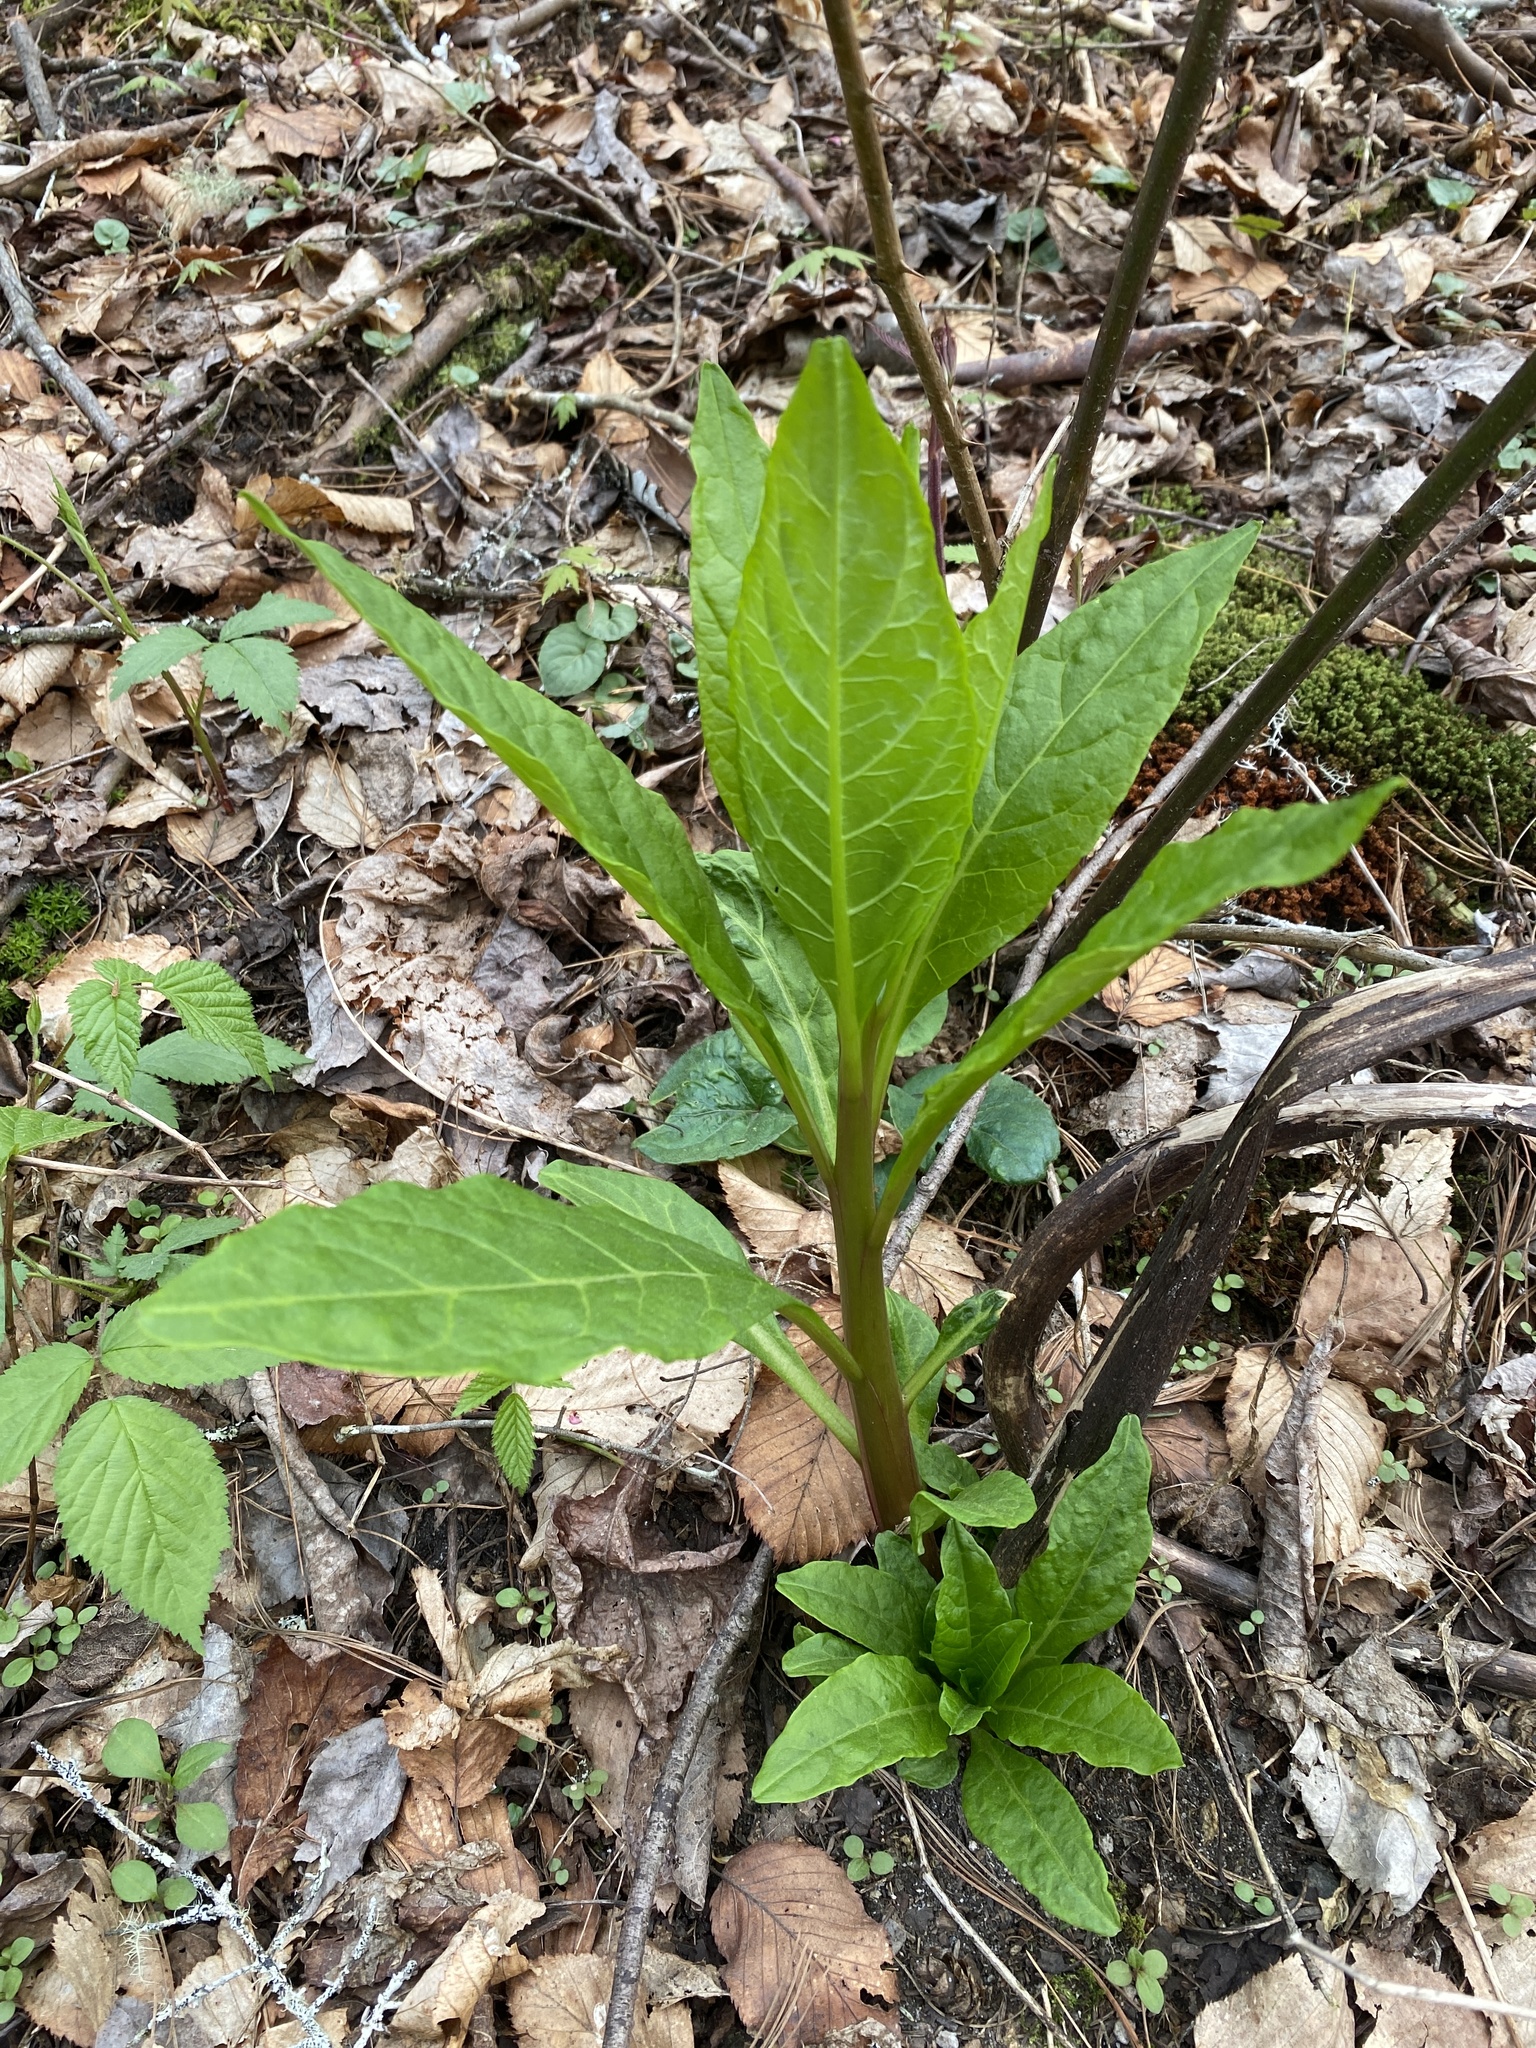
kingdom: Plantae
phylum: Tracheophyta
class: Magnoliopsida
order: Caryophyllales
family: Phytolaccaceae
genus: Phytolacca
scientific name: Phytolacca americana
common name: American pokeweed
